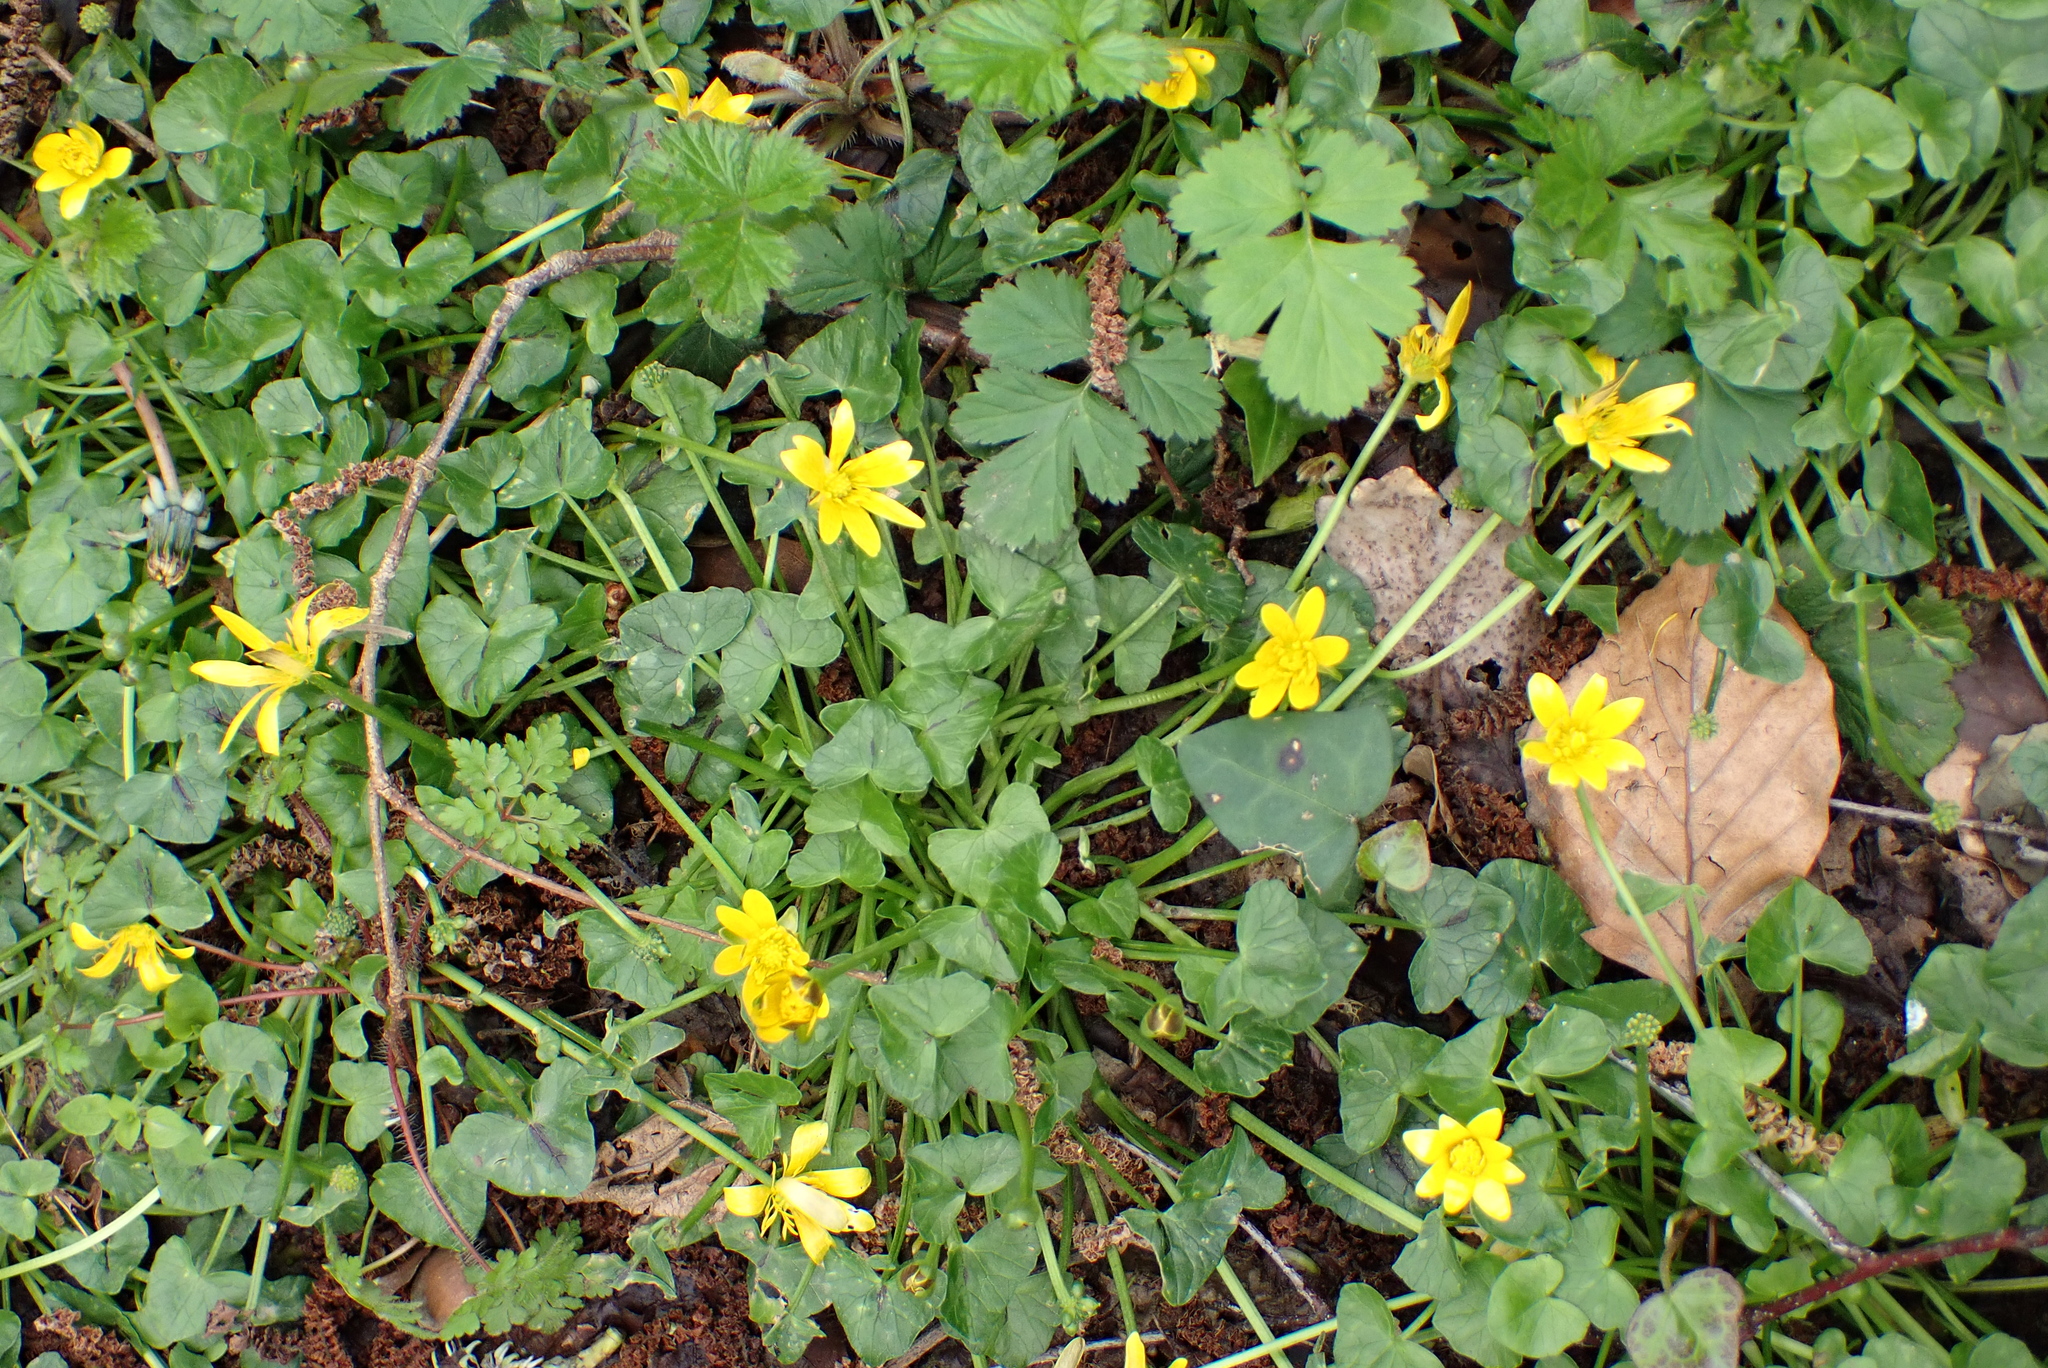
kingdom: Plantae
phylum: Tracheophyta
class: Magnoliopsida
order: Ranunculales
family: Ranunculaceae
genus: Ficaria
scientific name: Ficaria verna
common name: Lesser celandine
